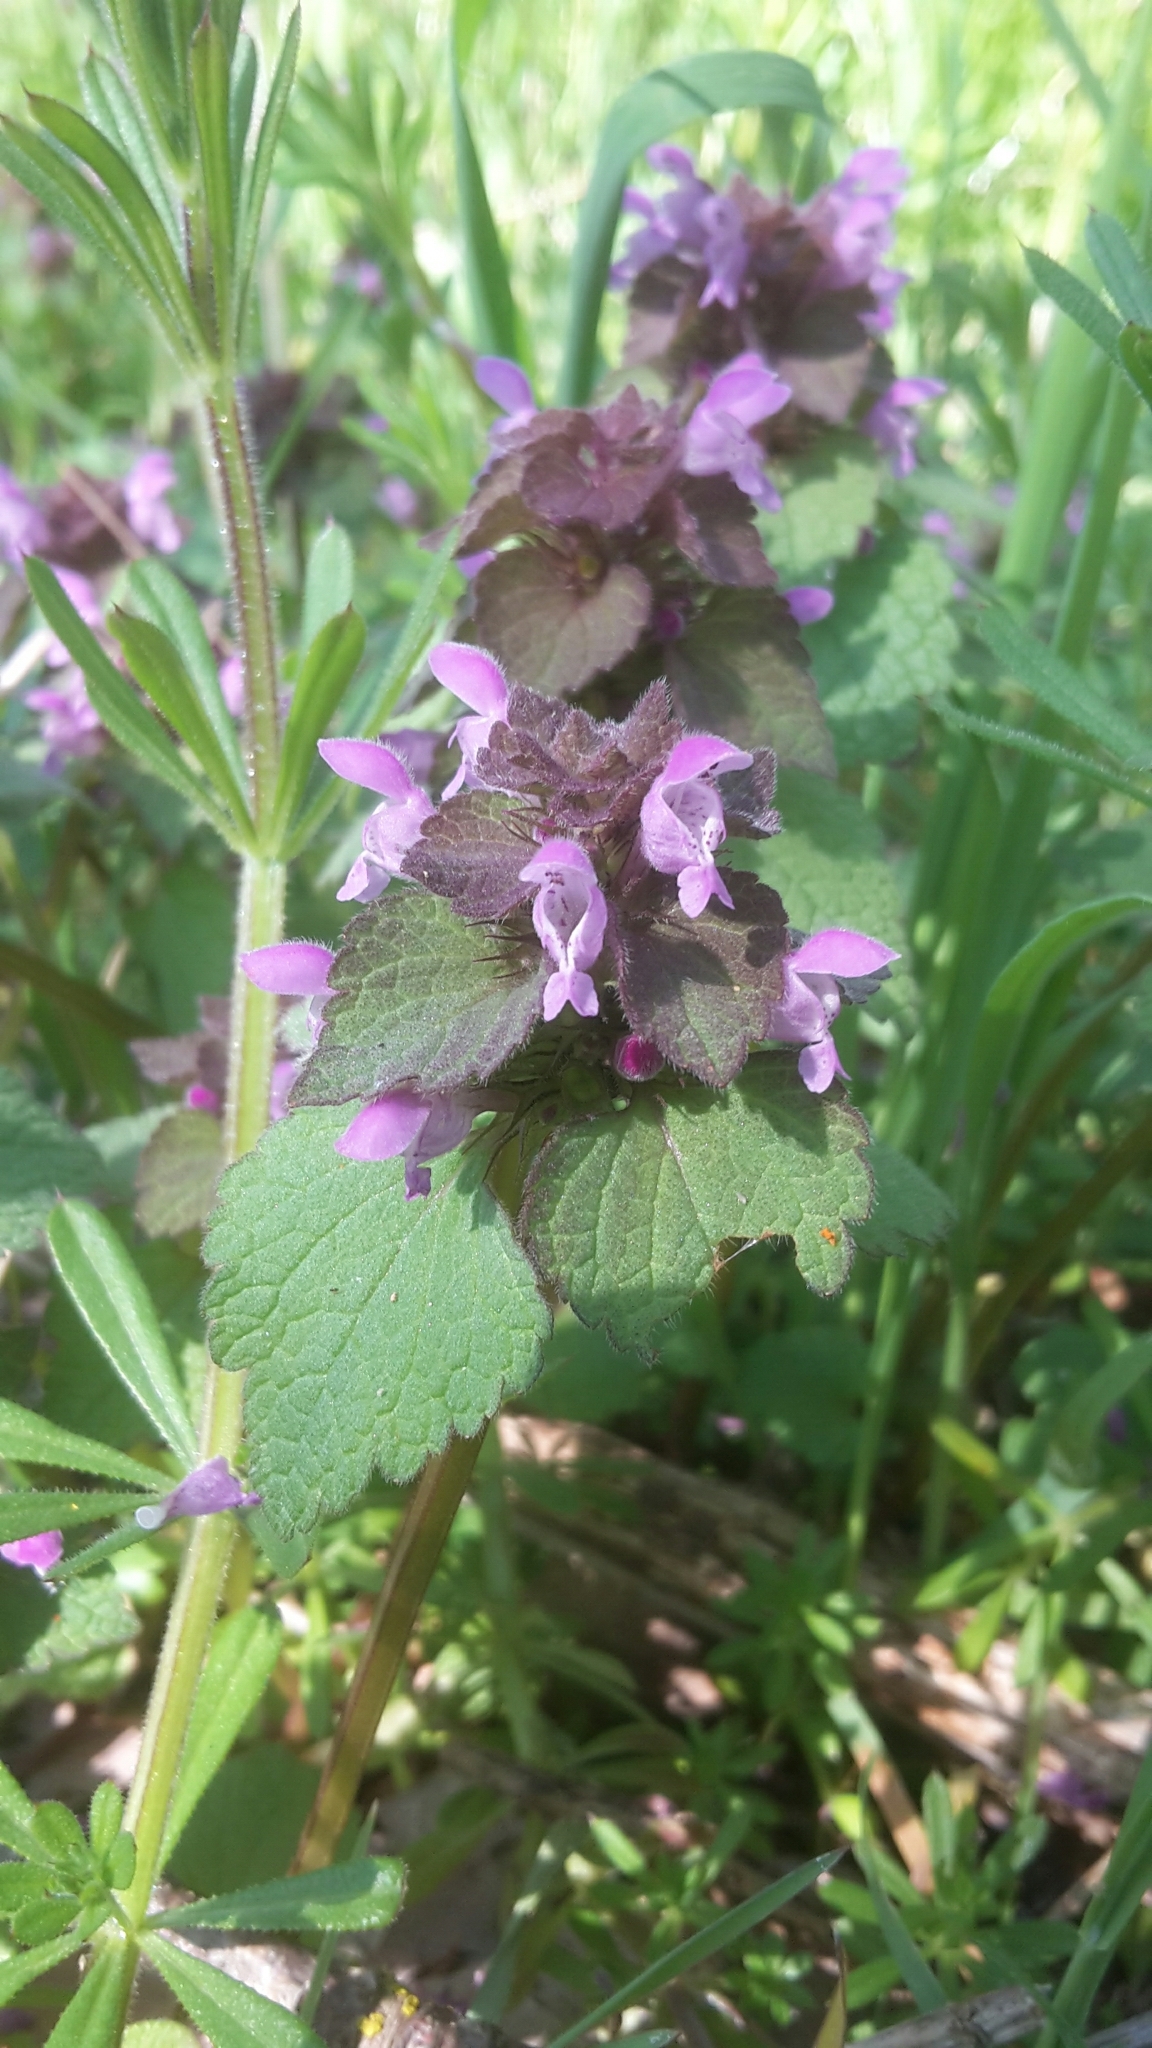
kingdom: Plantae
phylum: Tracheophyta
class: Magnoliopsida
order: Lamiales
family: Lamiaceae
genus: Lamium
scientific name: Lamium purpureum
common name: Red dead-nettle
